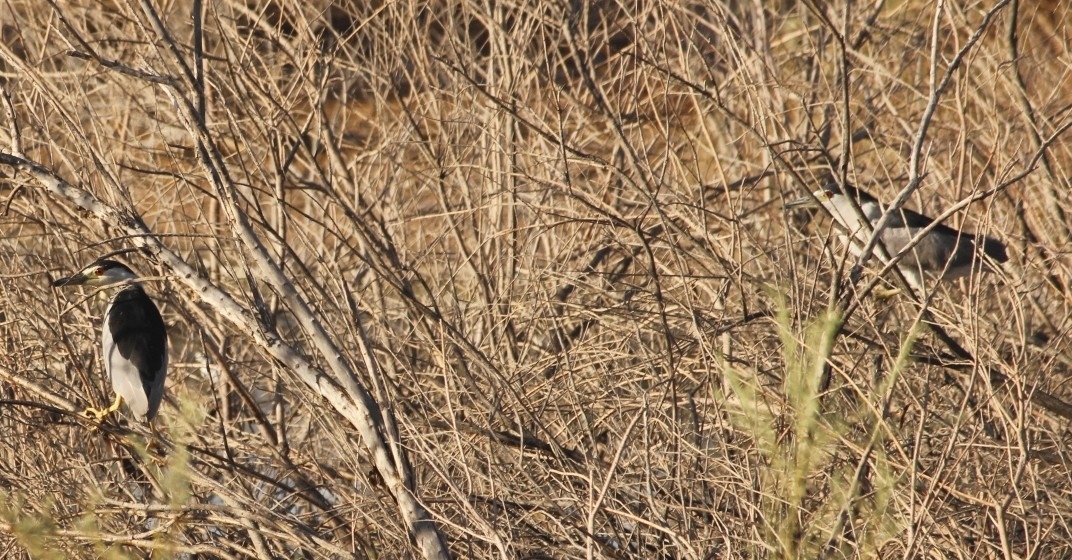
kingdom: Animalia
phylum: Chordata
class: Aves
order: Pelecaniformes
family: Ardeidae
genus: Nycticorax
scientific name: Nycticorax nycticorax
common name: Black-crowned night heron
